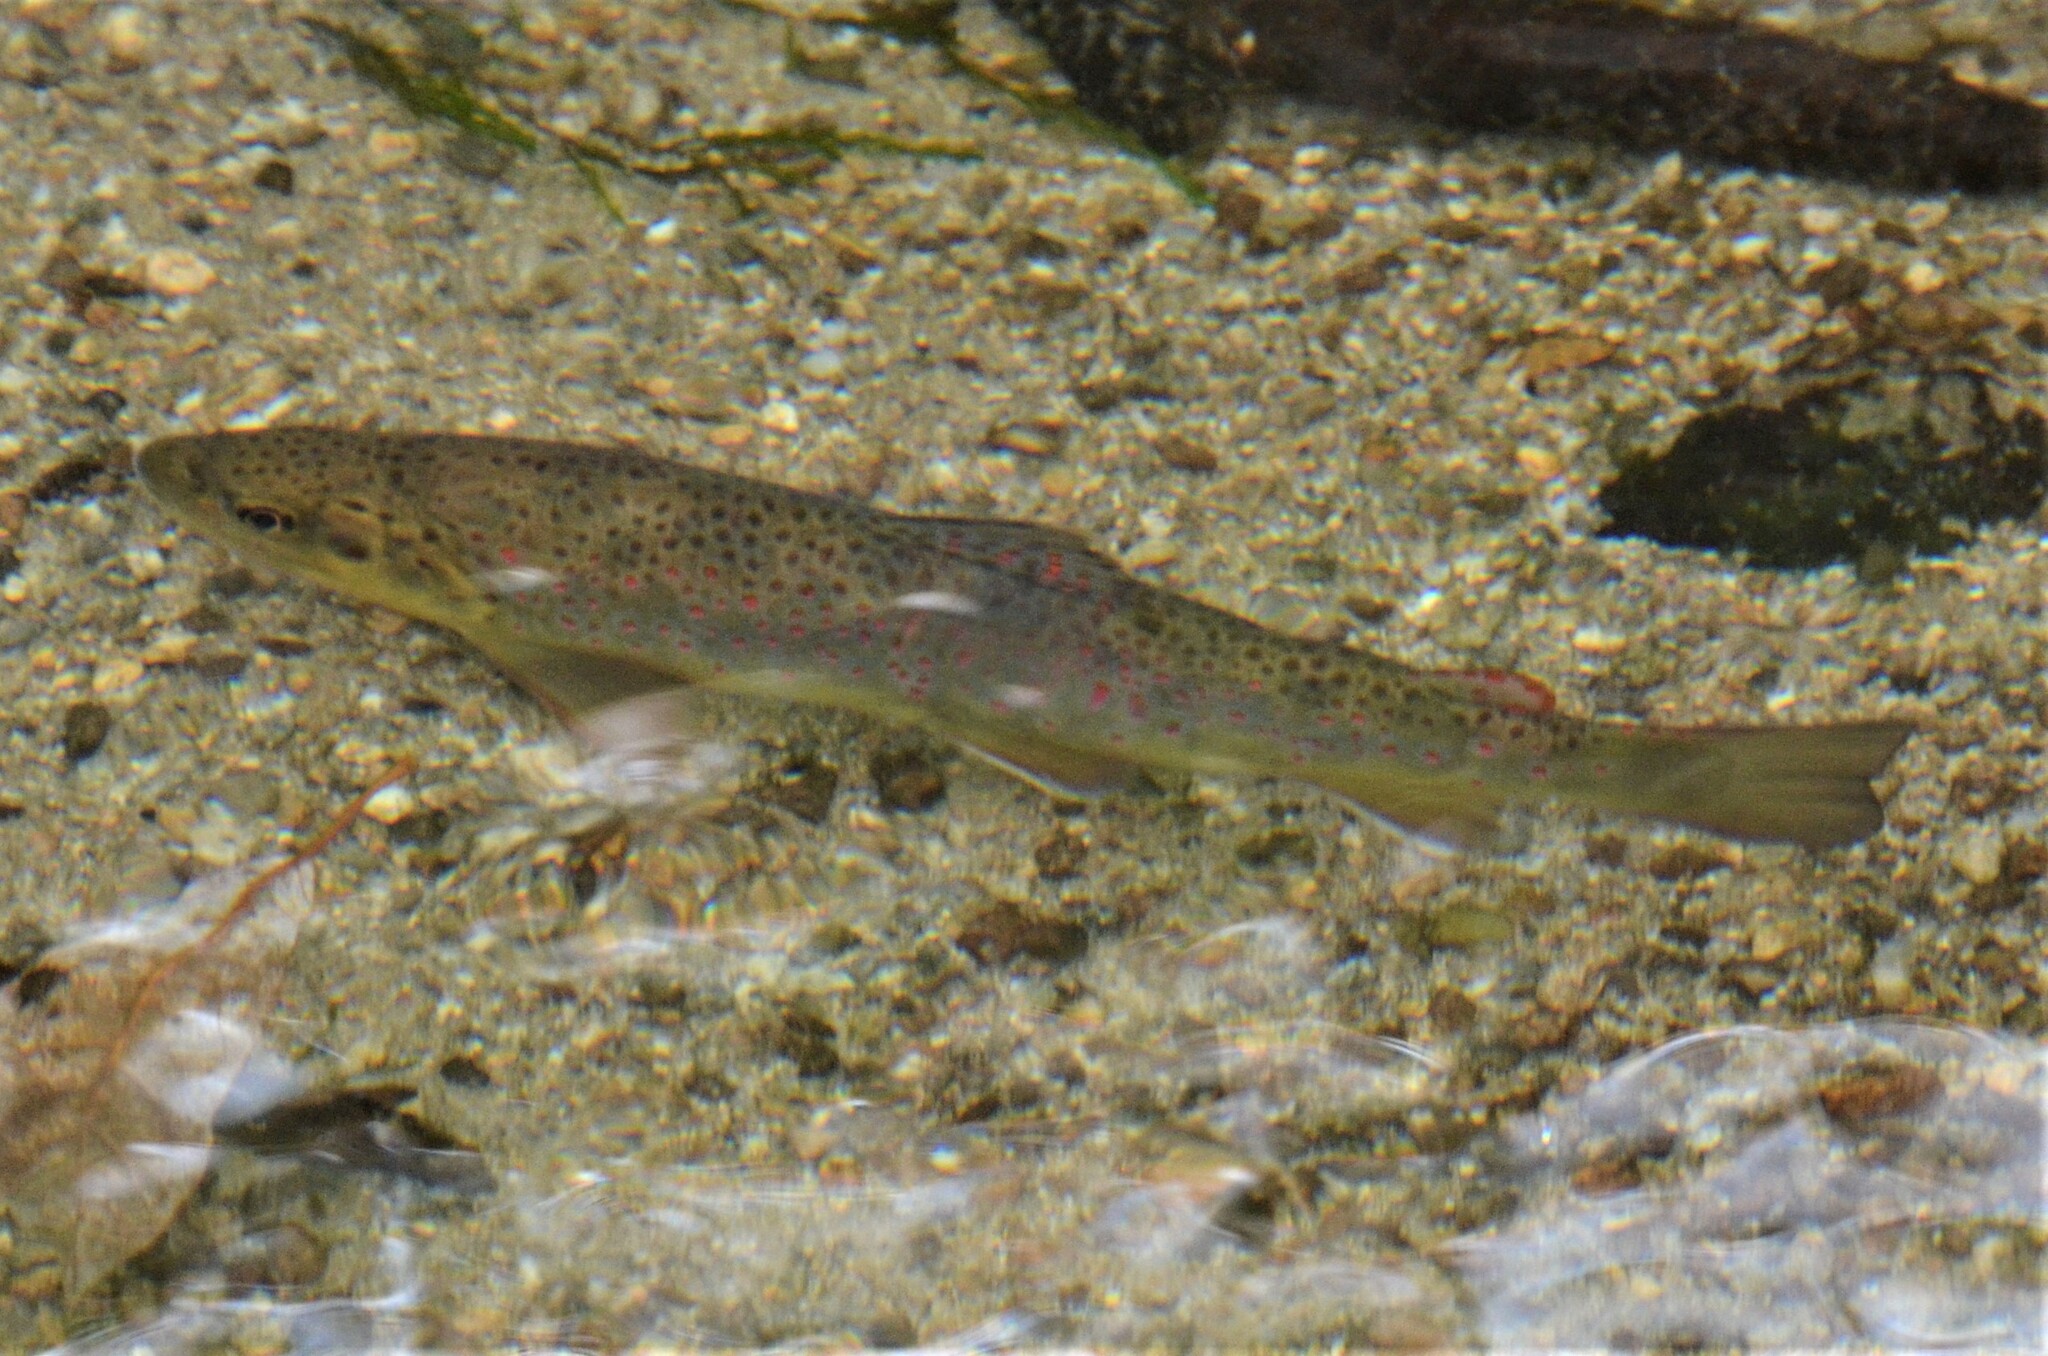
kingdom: Animalia
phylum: Chordata
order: Salmoniformes
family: Salmonidae
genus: Salmo
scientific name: Salmo trutta
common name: Brown trout
